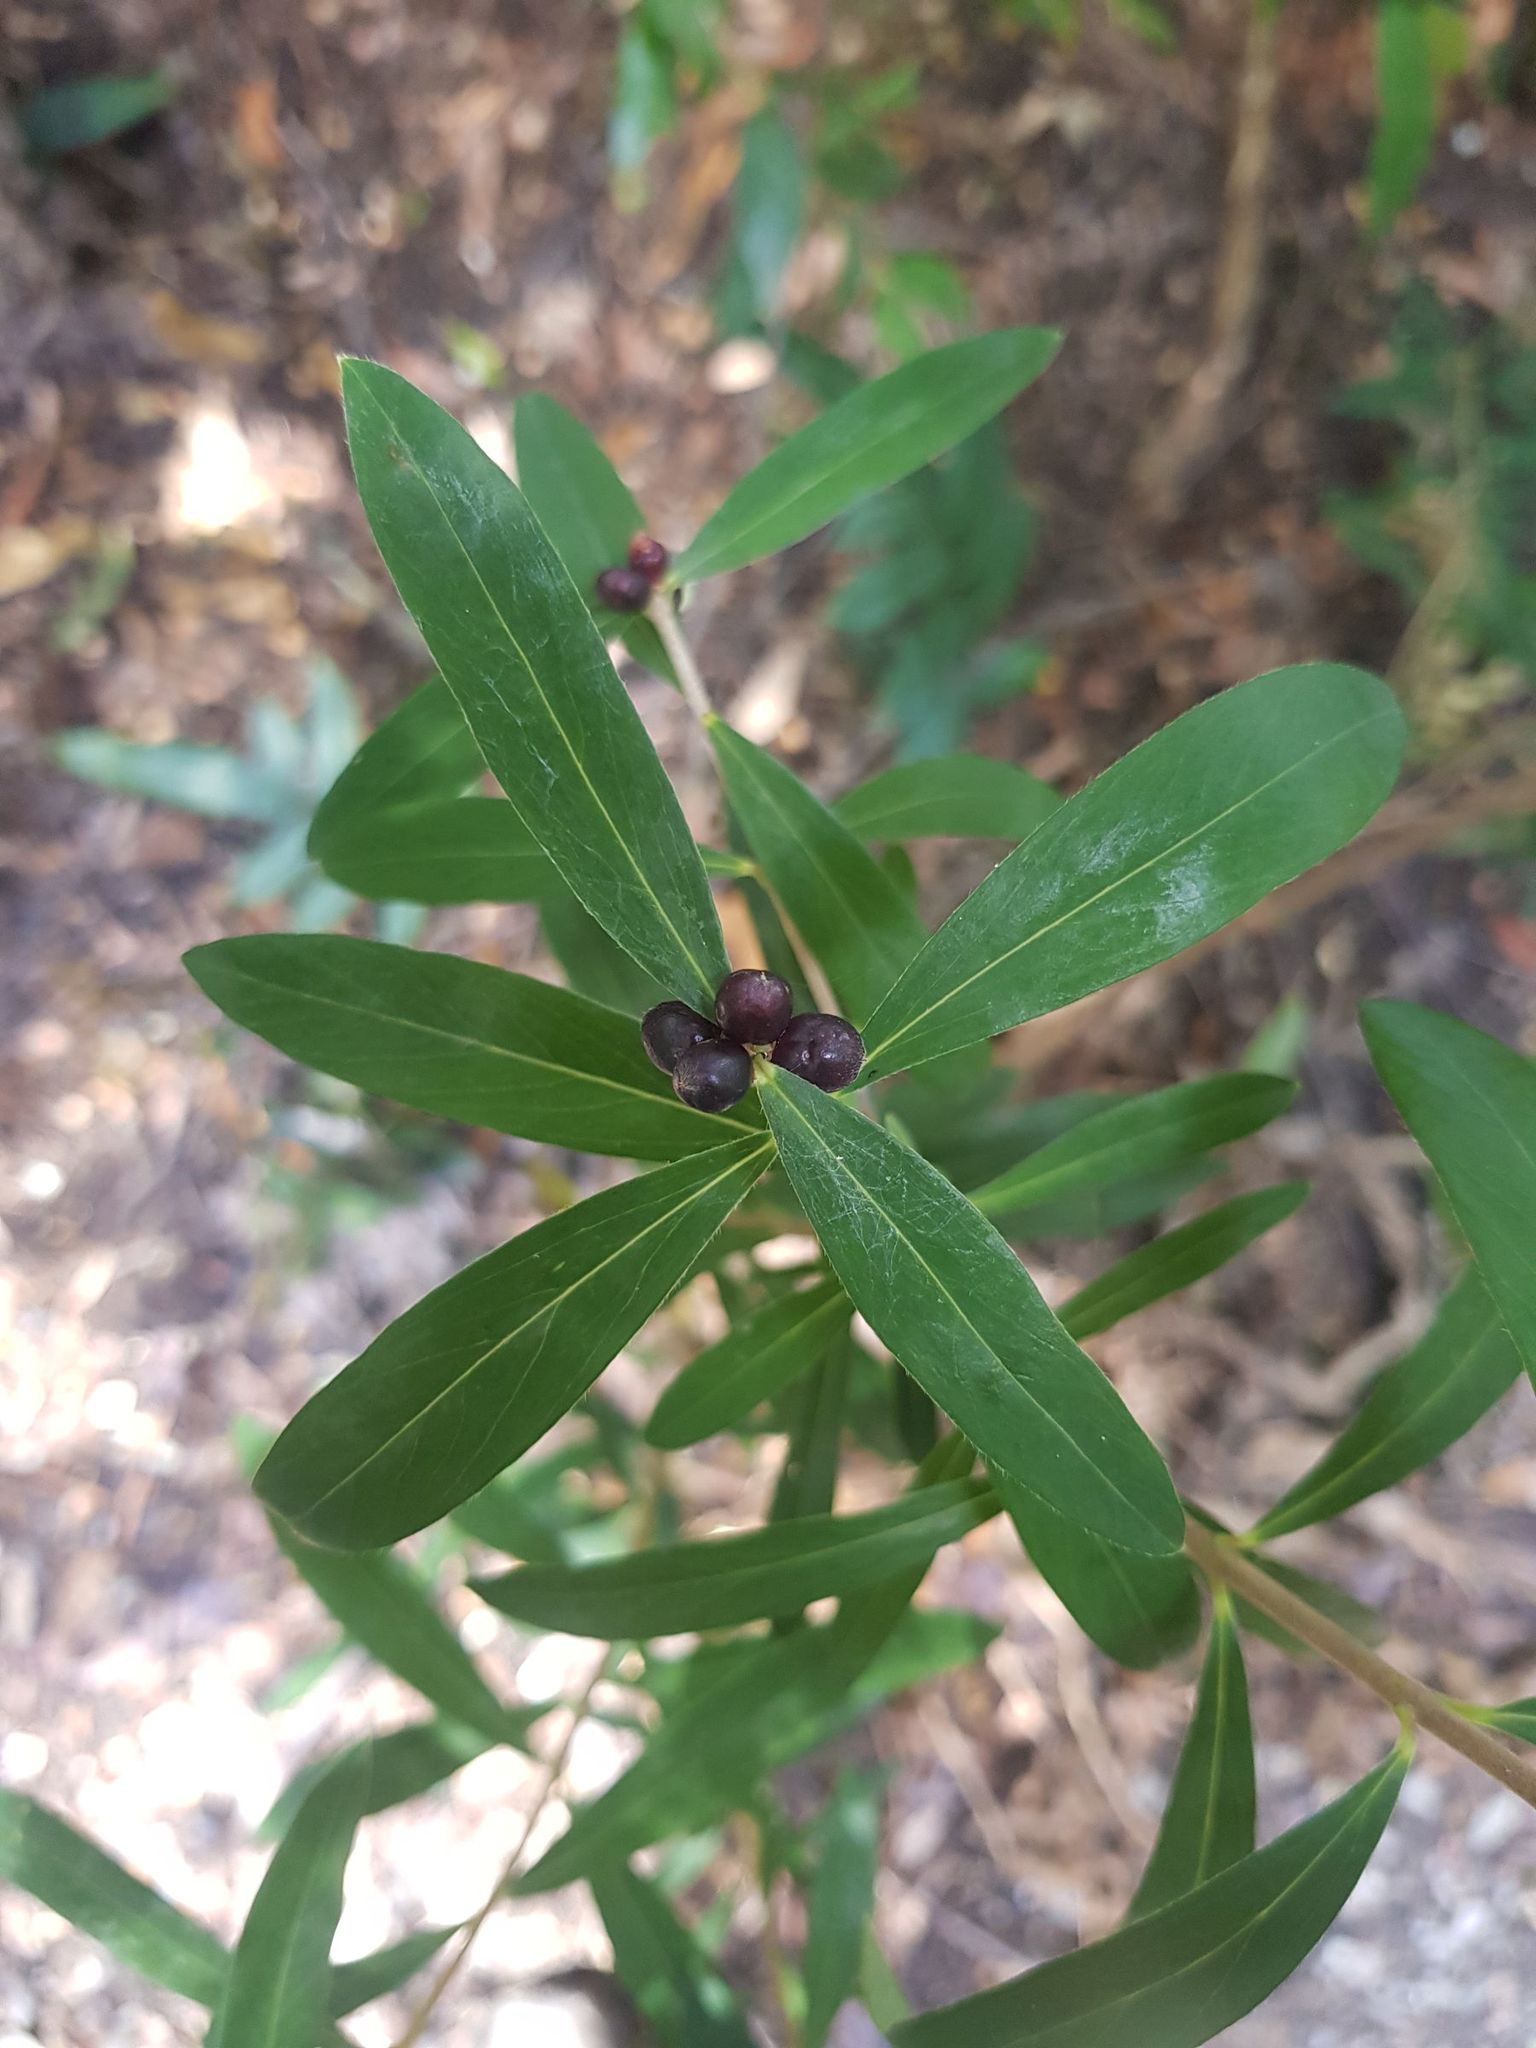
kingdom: Plantae
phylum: Tracheophyta
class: Magnoliopsida
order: Malvales
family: Thymelaeaceae
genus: Pimelea
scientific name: Pimelea drupacea
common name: Cherry riceflower
